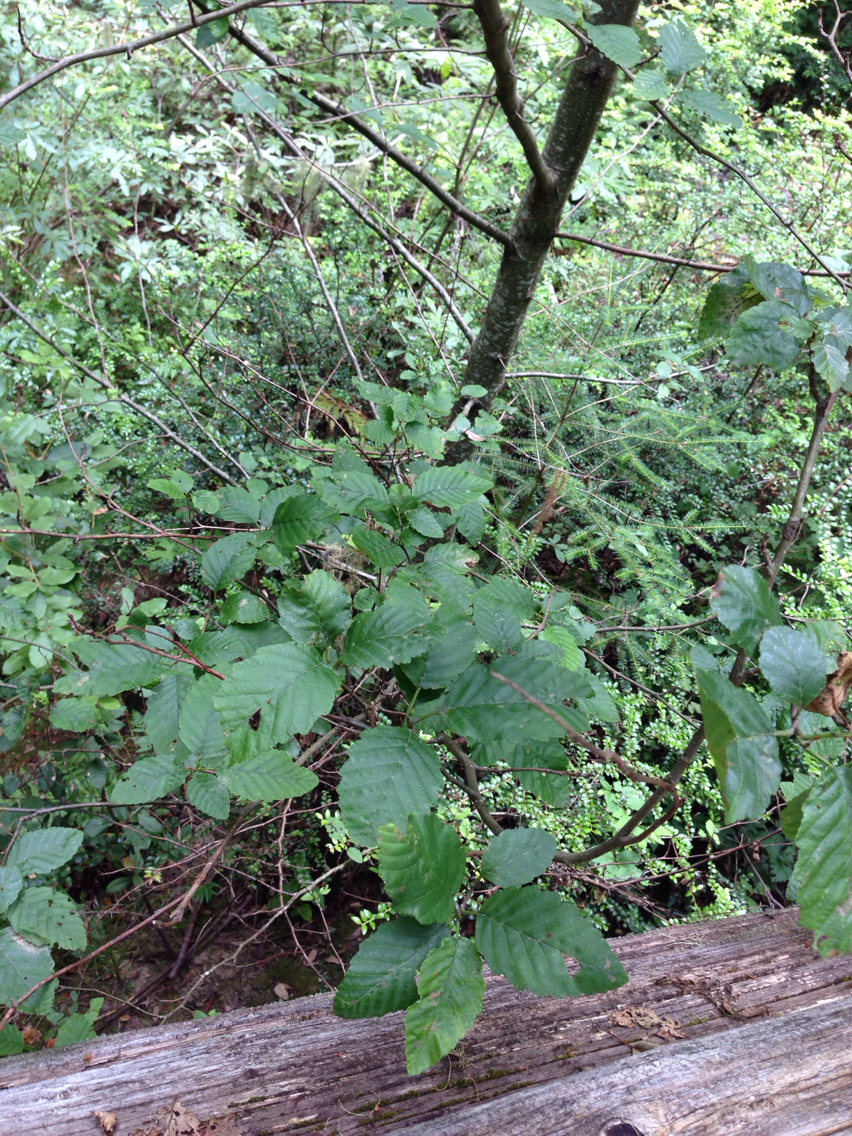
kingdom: Plantae
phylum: Tracheophyta
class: Magnoliopsida
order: Fagales
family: Betulaceae
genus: Alnus
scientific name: Alnus rhombifolia
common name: California alder
